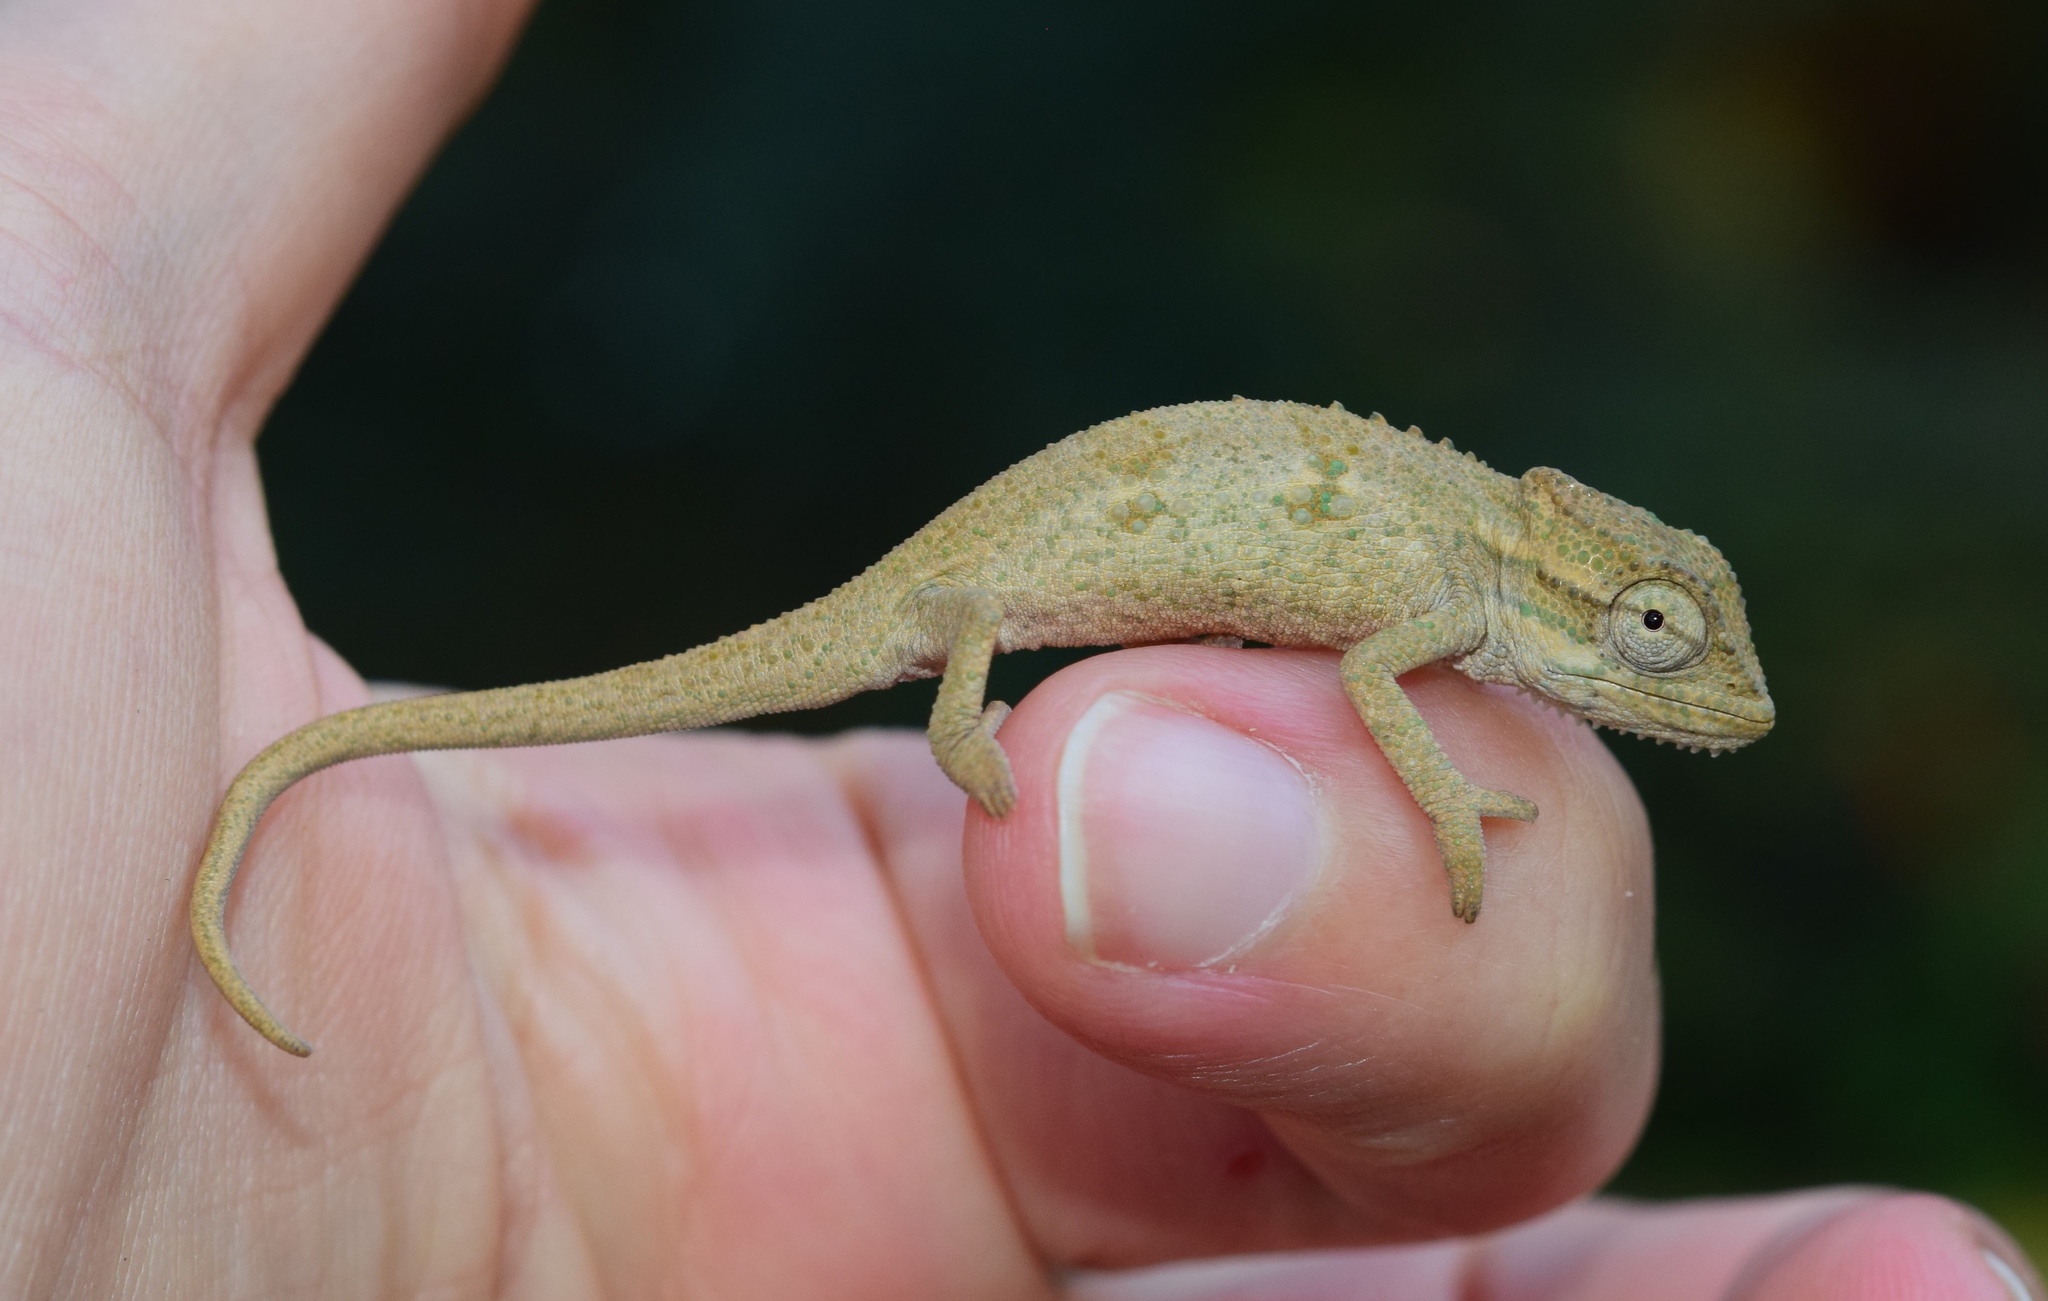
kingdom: Animalia
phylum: Chordata
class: Squamata
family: Chamaeleonidae
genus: Bradypodion
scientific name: Bradypodion melanocephalum
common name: Black-headed dwarf chameleon
